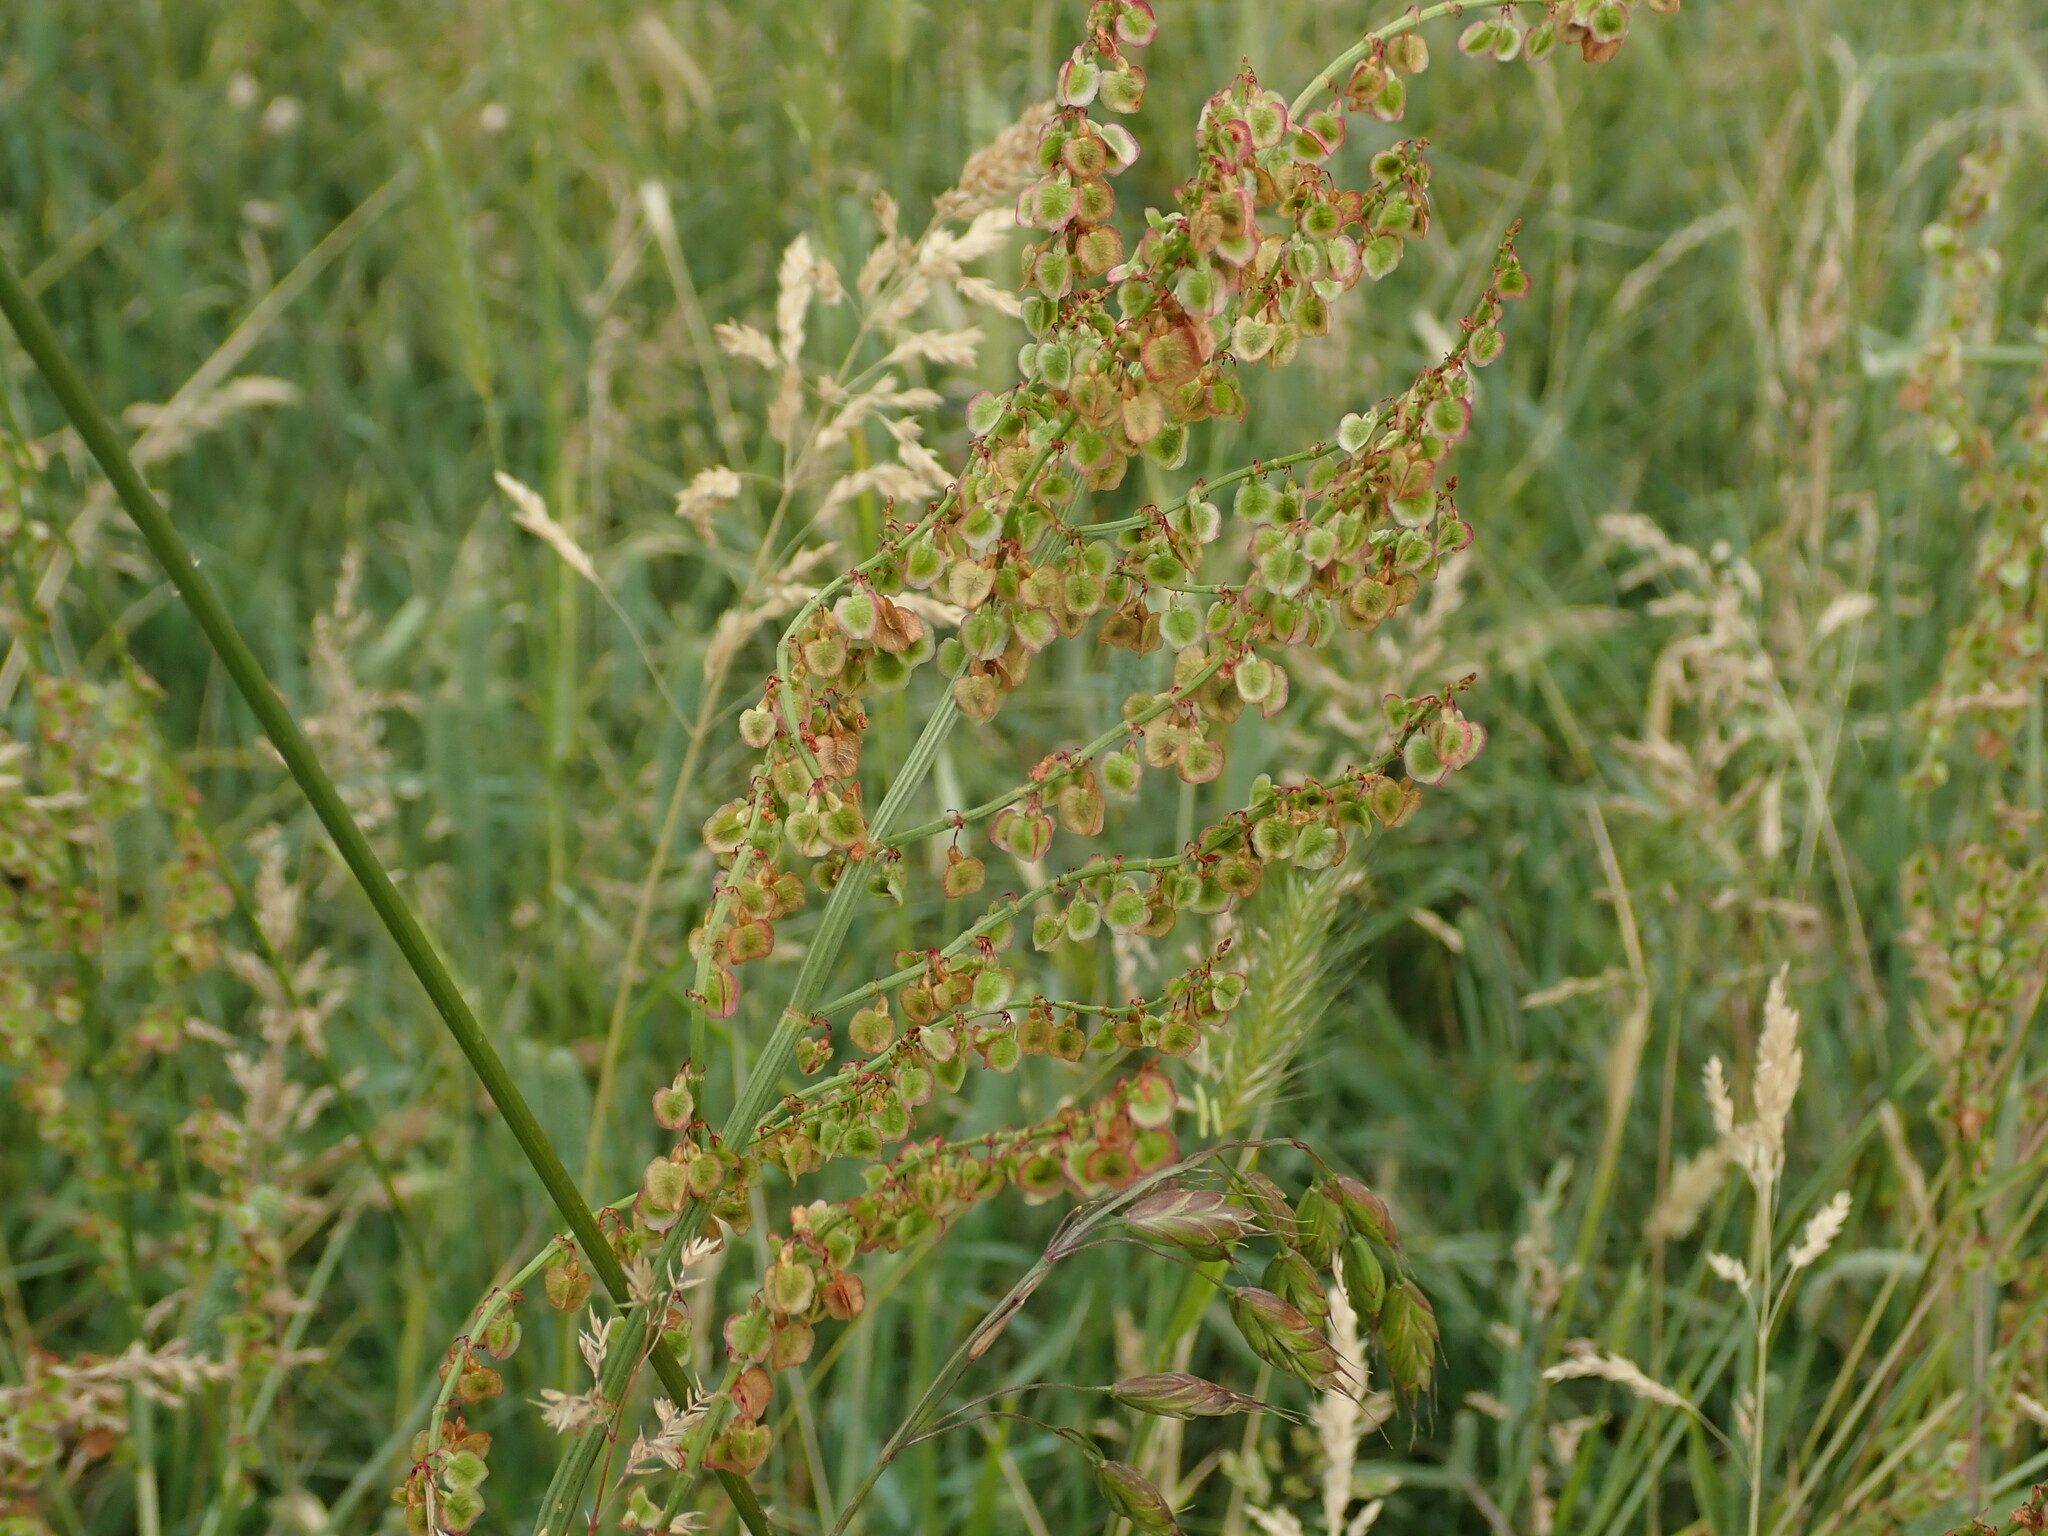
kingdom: Plantae
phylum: Tracheophyta
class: Magnoliopsida
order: Caryophyllales
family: Polygonaceae
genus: Rumex
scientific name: Rumex acetosa
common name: Garden sorrel
